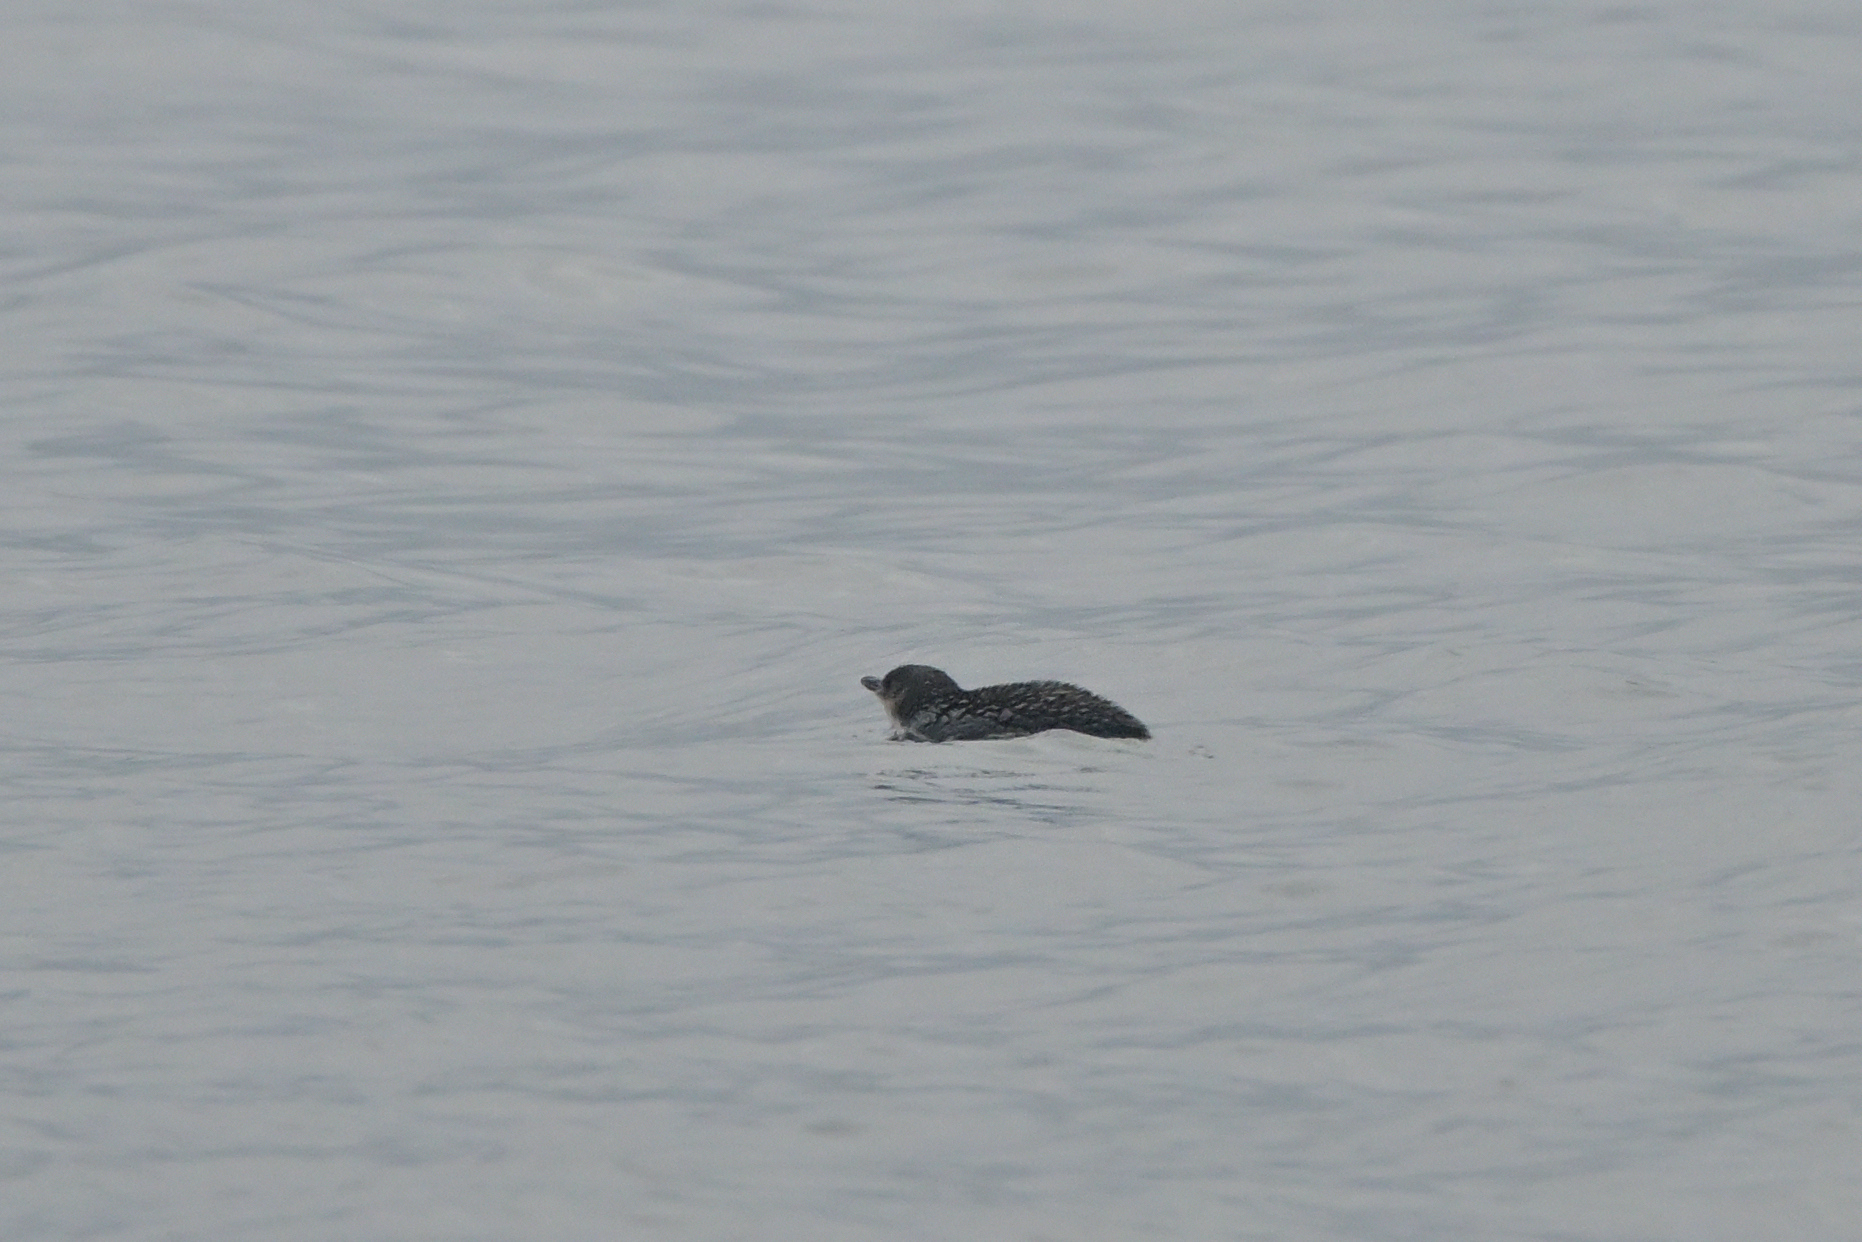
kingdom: Animalia
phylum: Chordata
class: Aves
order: Sphenisciformes
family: Spheniscidae
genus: Eudyptula
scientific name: Eudyptula minor
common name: Little penguin
